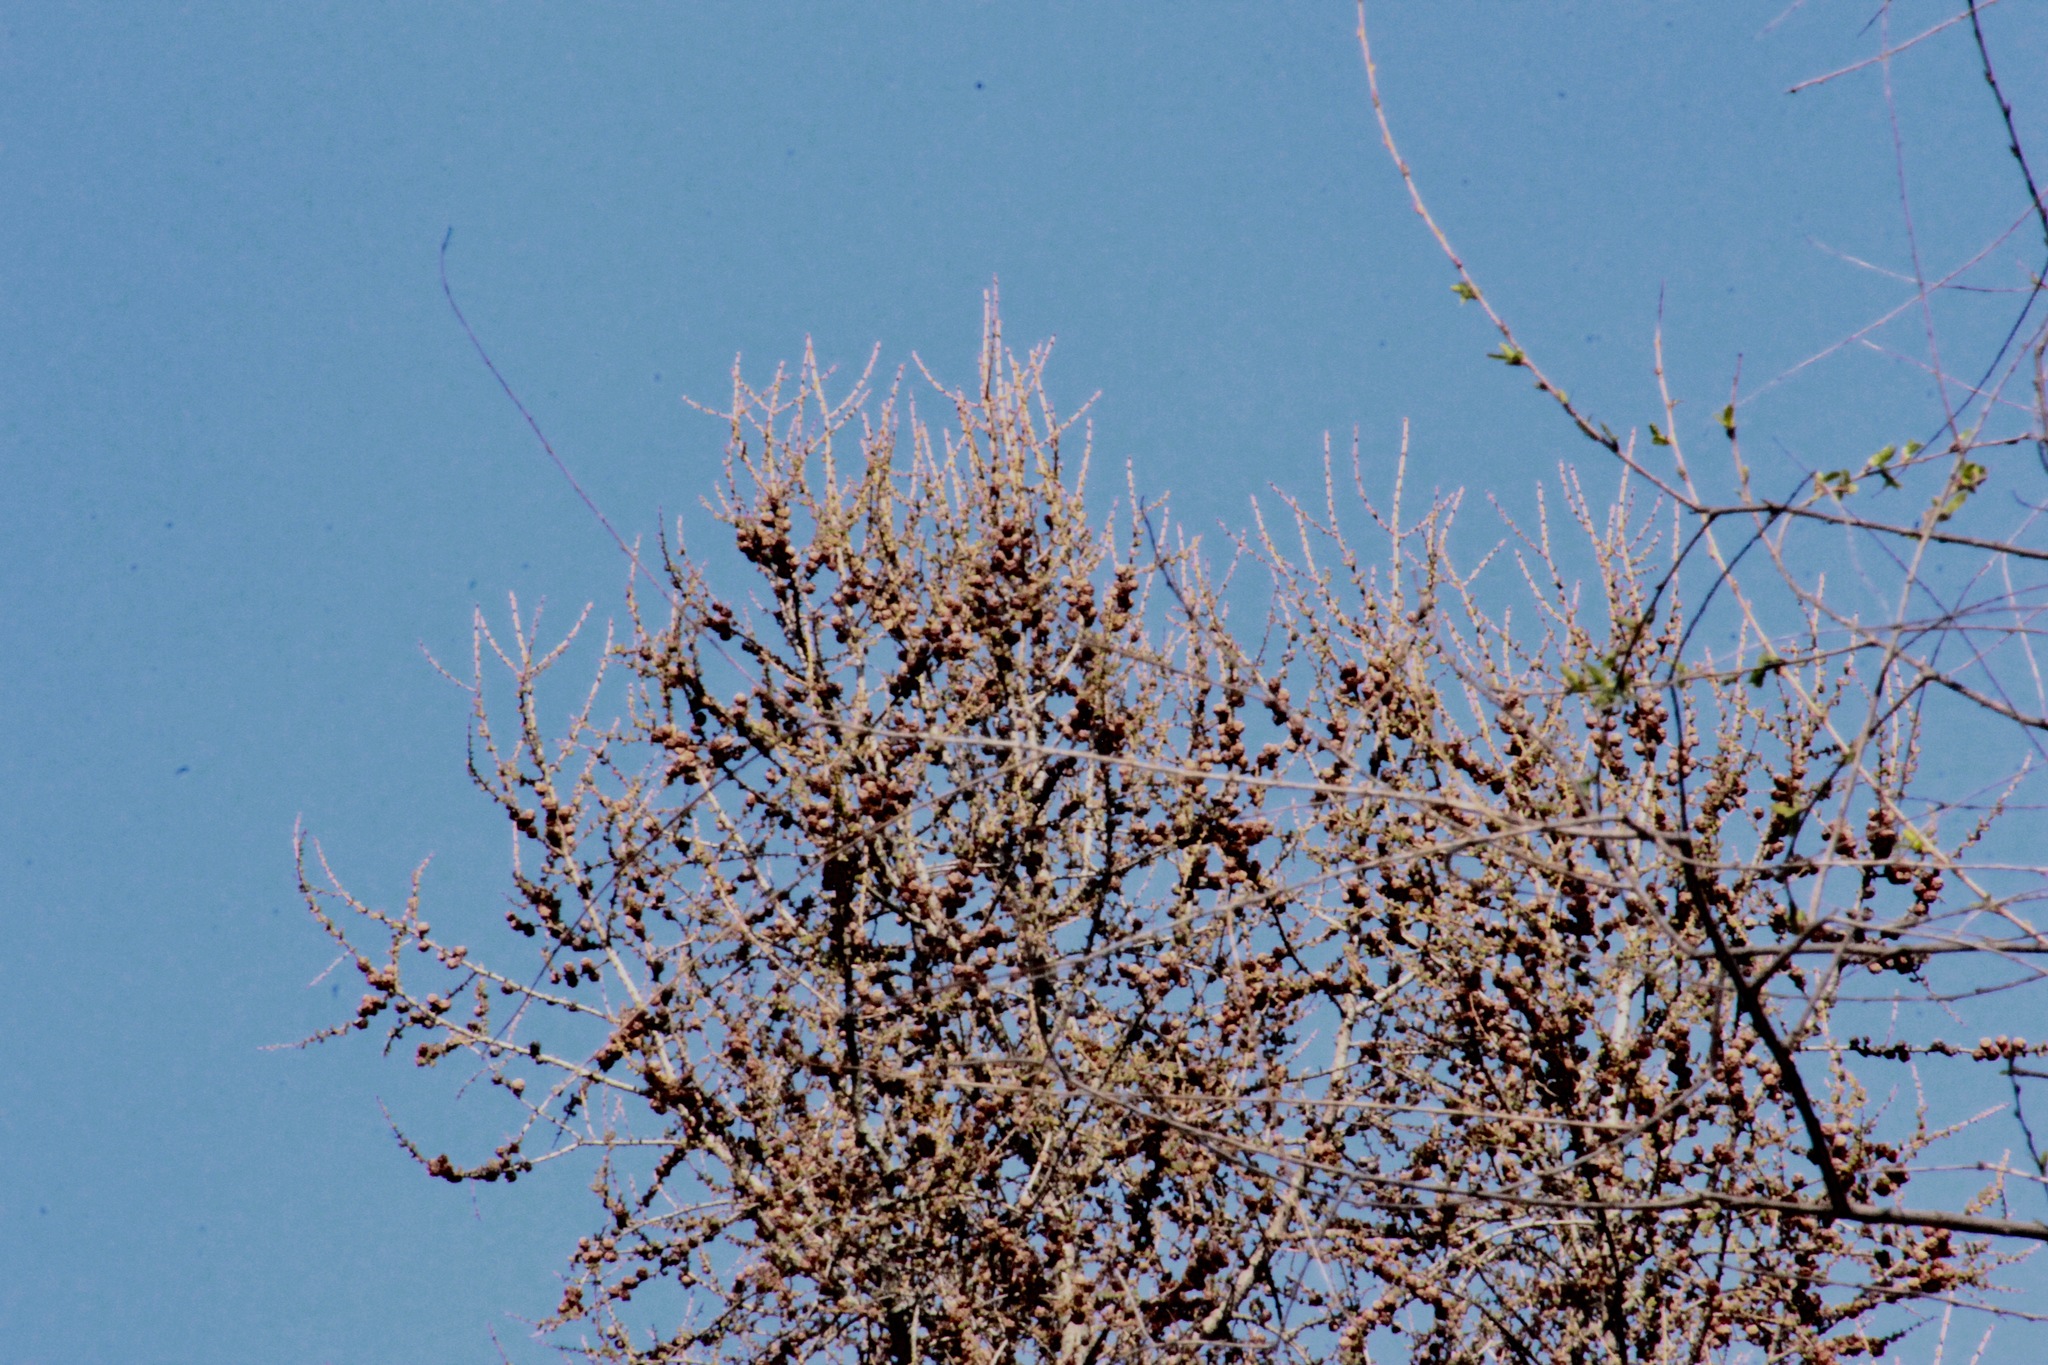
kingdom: Plantae
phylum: Tracheophyta
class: Pinopsida
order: Pinales
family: Pinaceae
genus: Larix
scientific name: Larix laricina
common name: American larch
